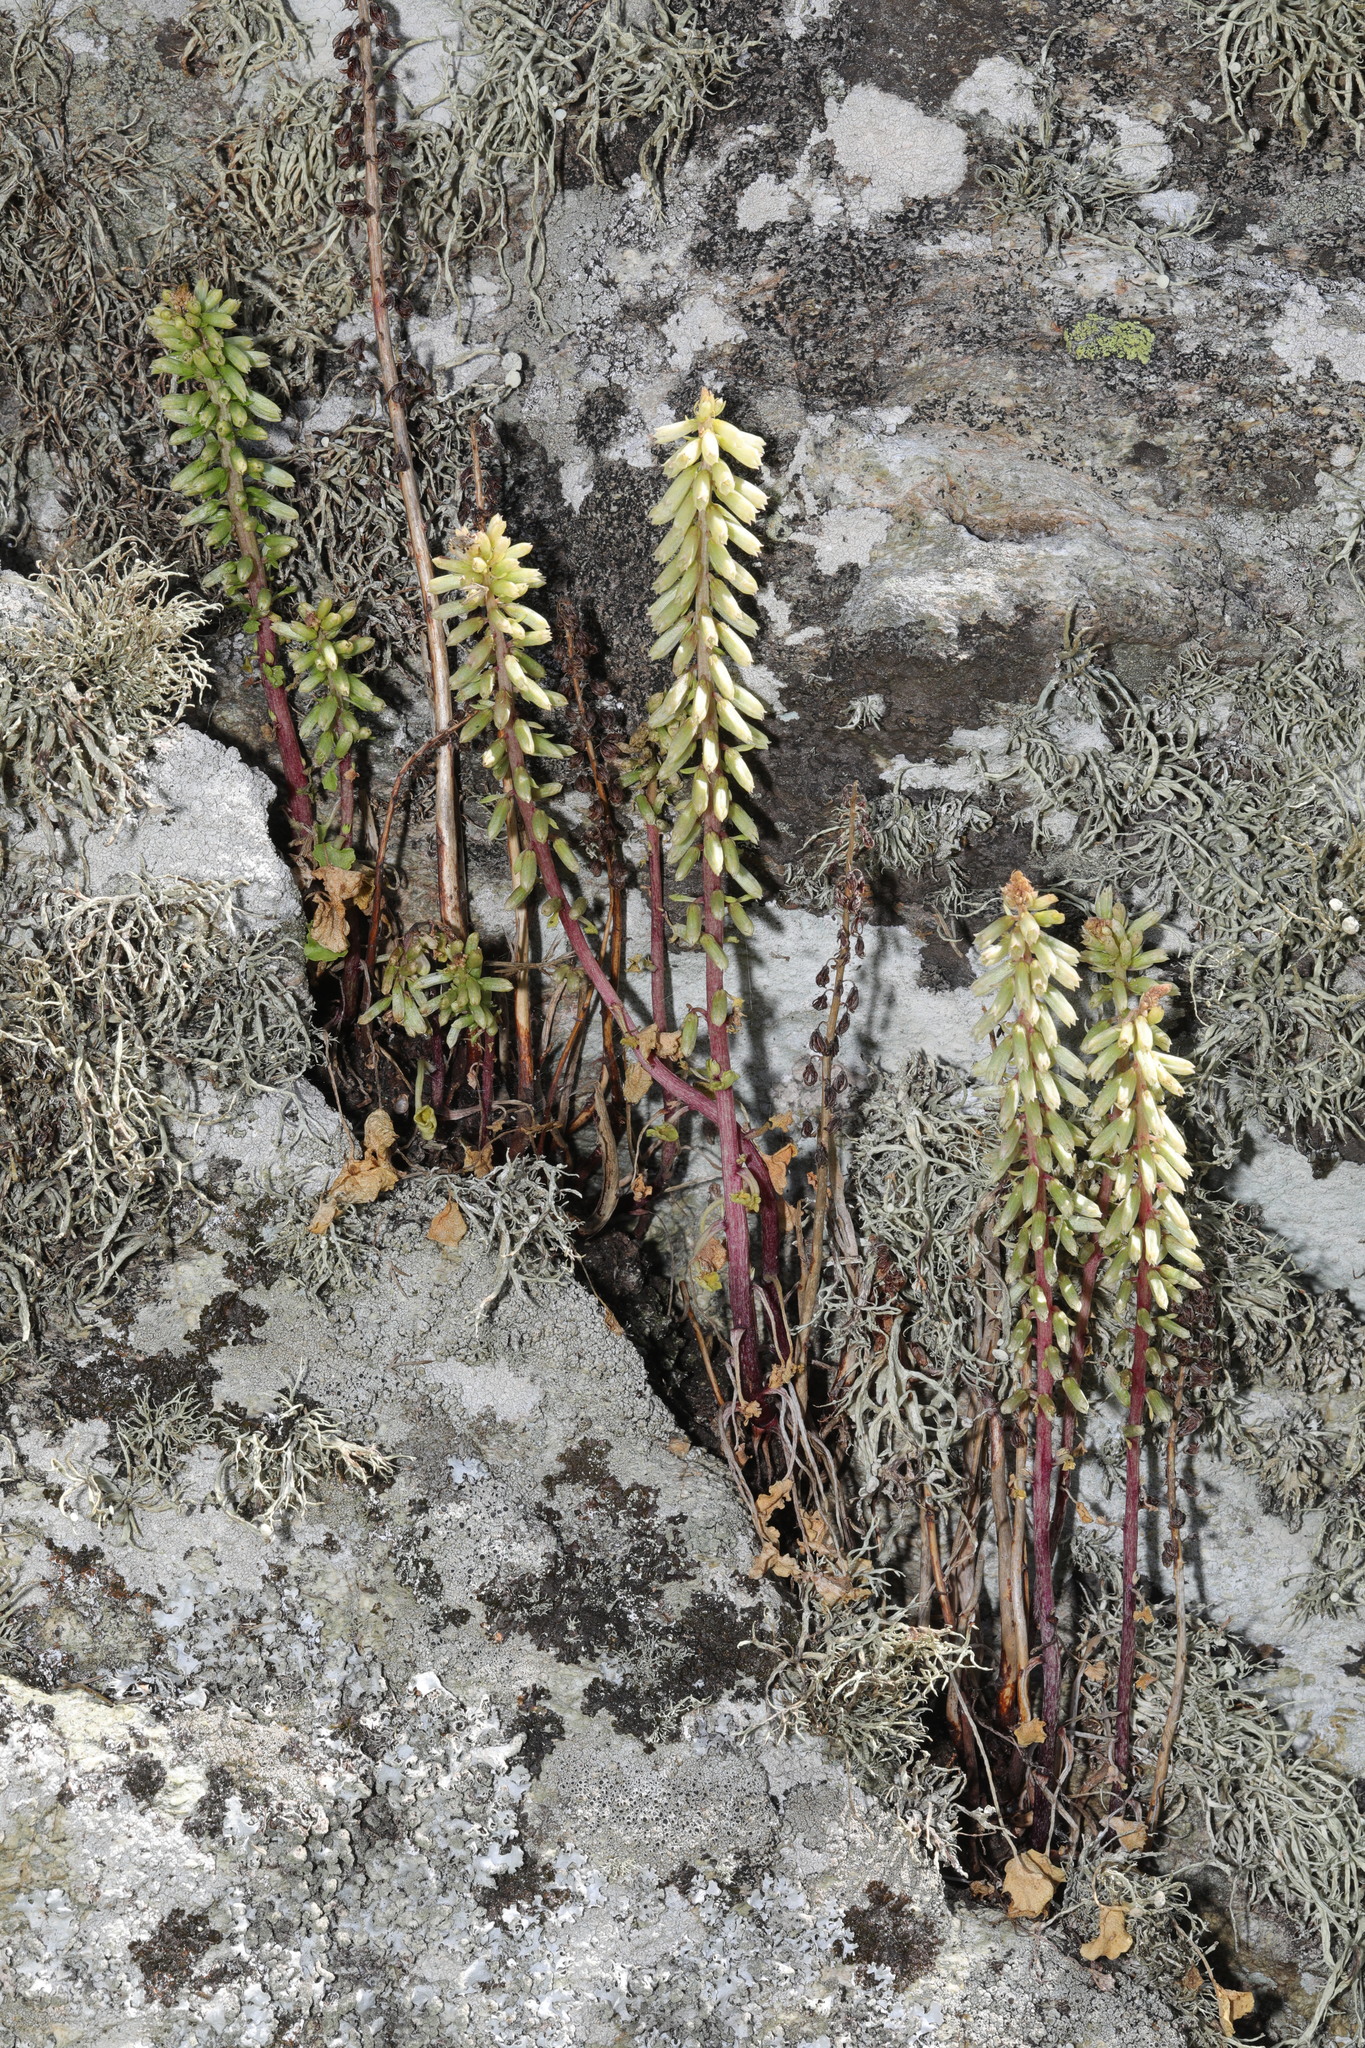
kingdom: Plantae
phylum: Tracheophyta
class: Magnoliopsida
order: Saxifragales
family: Crassulaceae
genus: Umbilicus
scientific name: Umbilicus rupestris
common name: Navelwort
